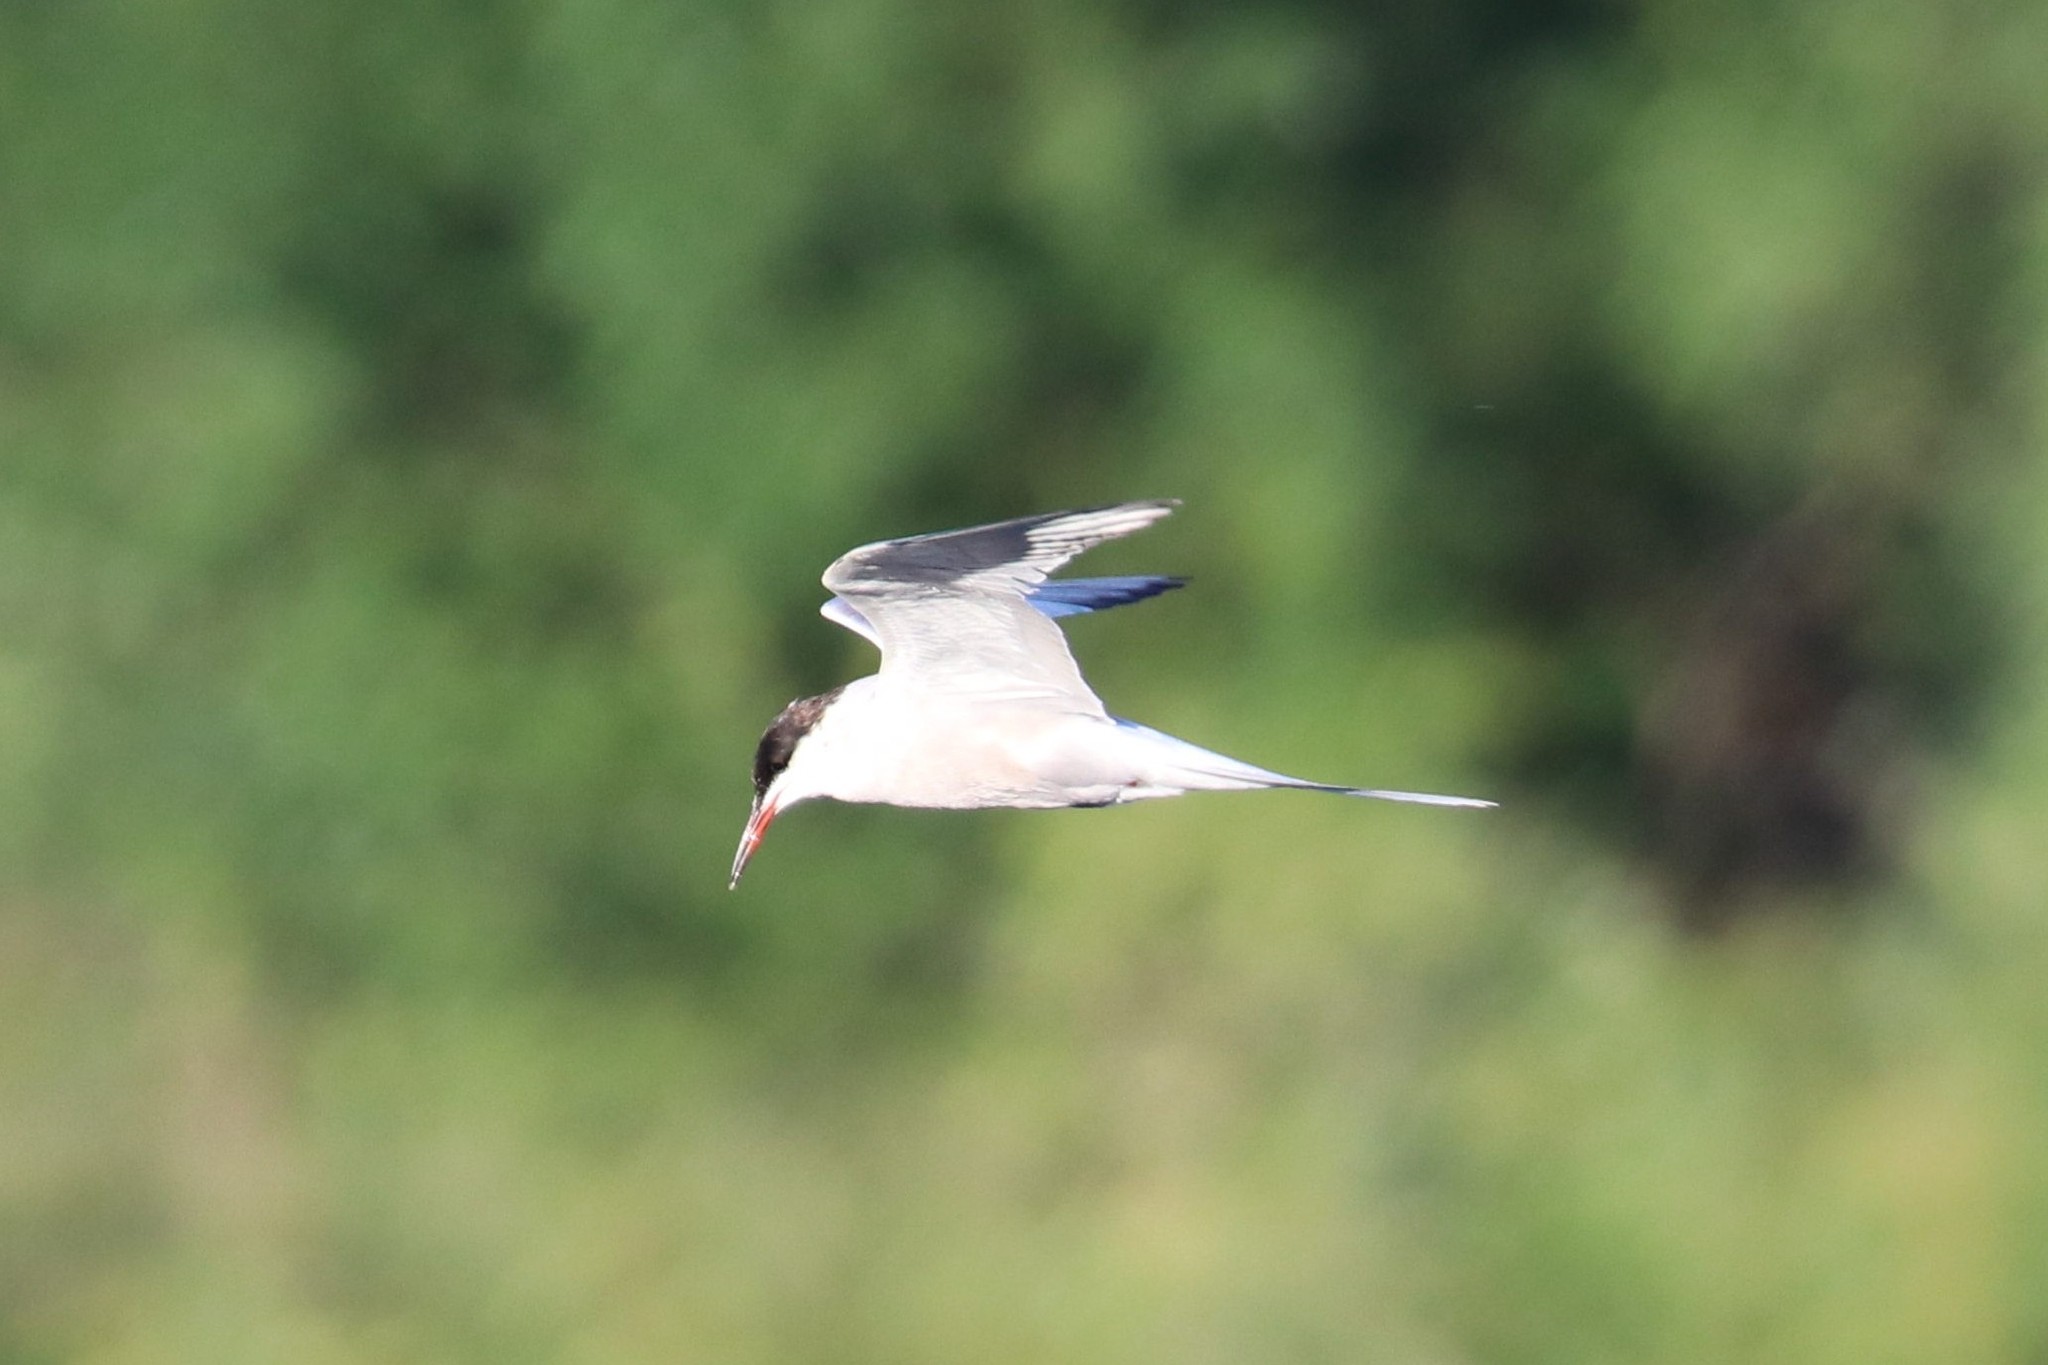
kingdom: Animalia
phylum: Chordata
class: Aves
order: Charadriiformes
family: Laridae
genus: Sterna
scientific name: Sterna hirundo
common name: Common tern
